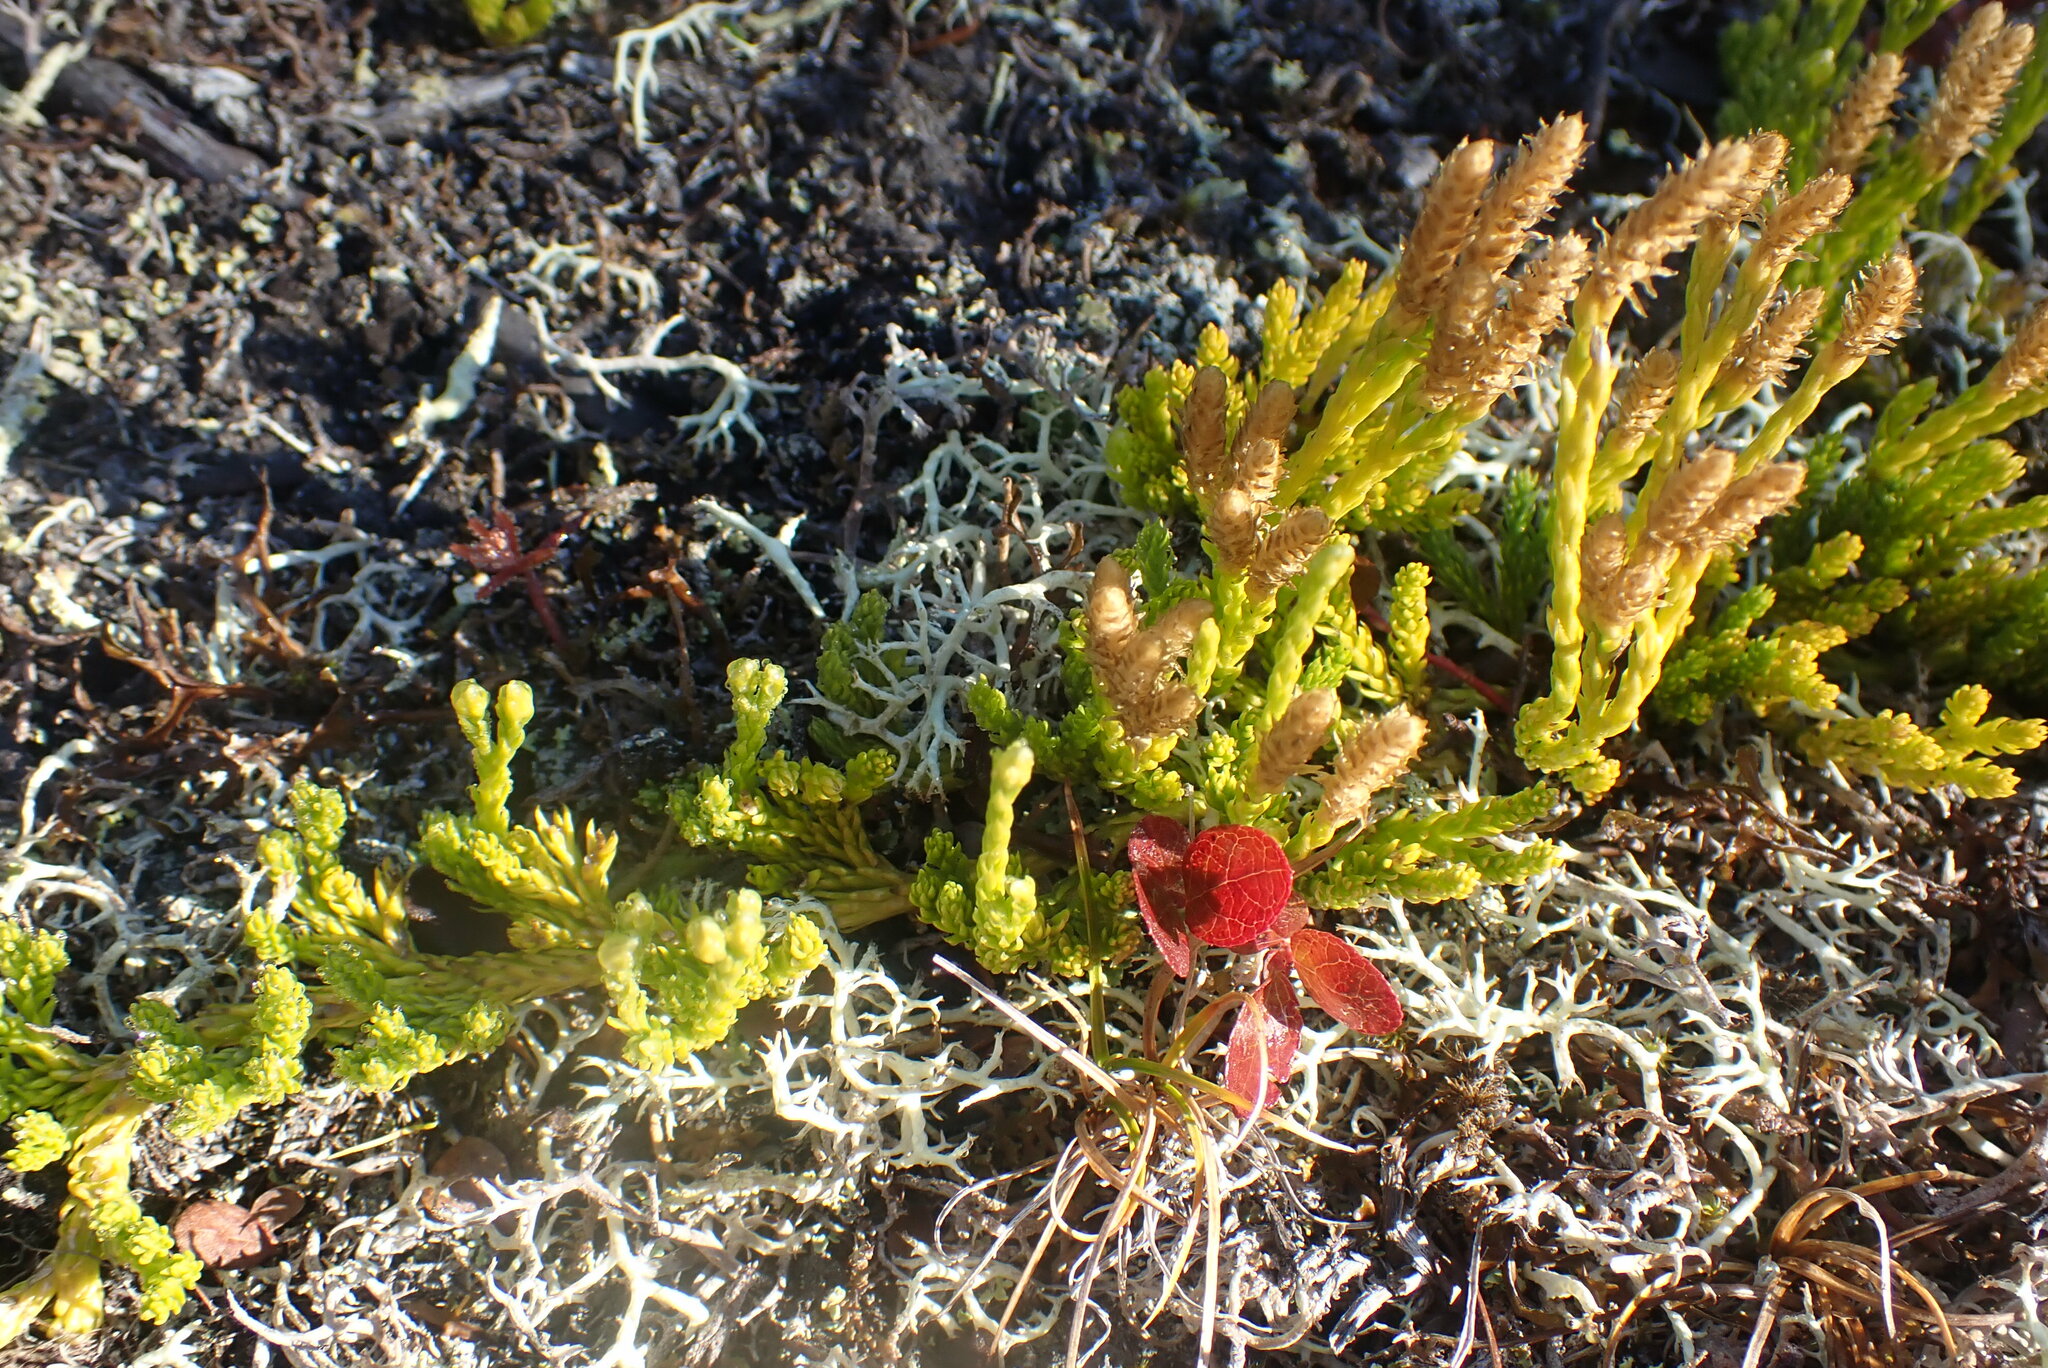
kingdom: Plantae
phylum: Tracheophyta
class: Lycopodiopsida
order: Lycopodiales
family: Lycopodiaceae
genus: Diphasiastrum
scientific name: Diphasiastrum sitchense
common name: Alaska clubmoss
